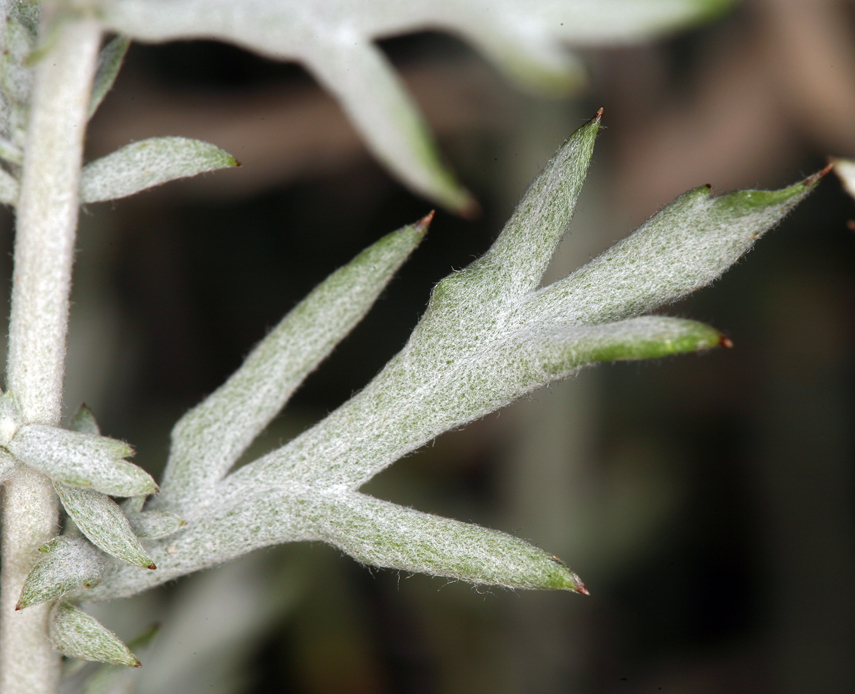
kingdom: Plantae
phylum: Tracheophyta
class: Magnoliopsida
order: Asterales
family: Asteraceae
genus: Artemisia
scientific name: Artemisia ludoviciana
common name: Western mugwort
